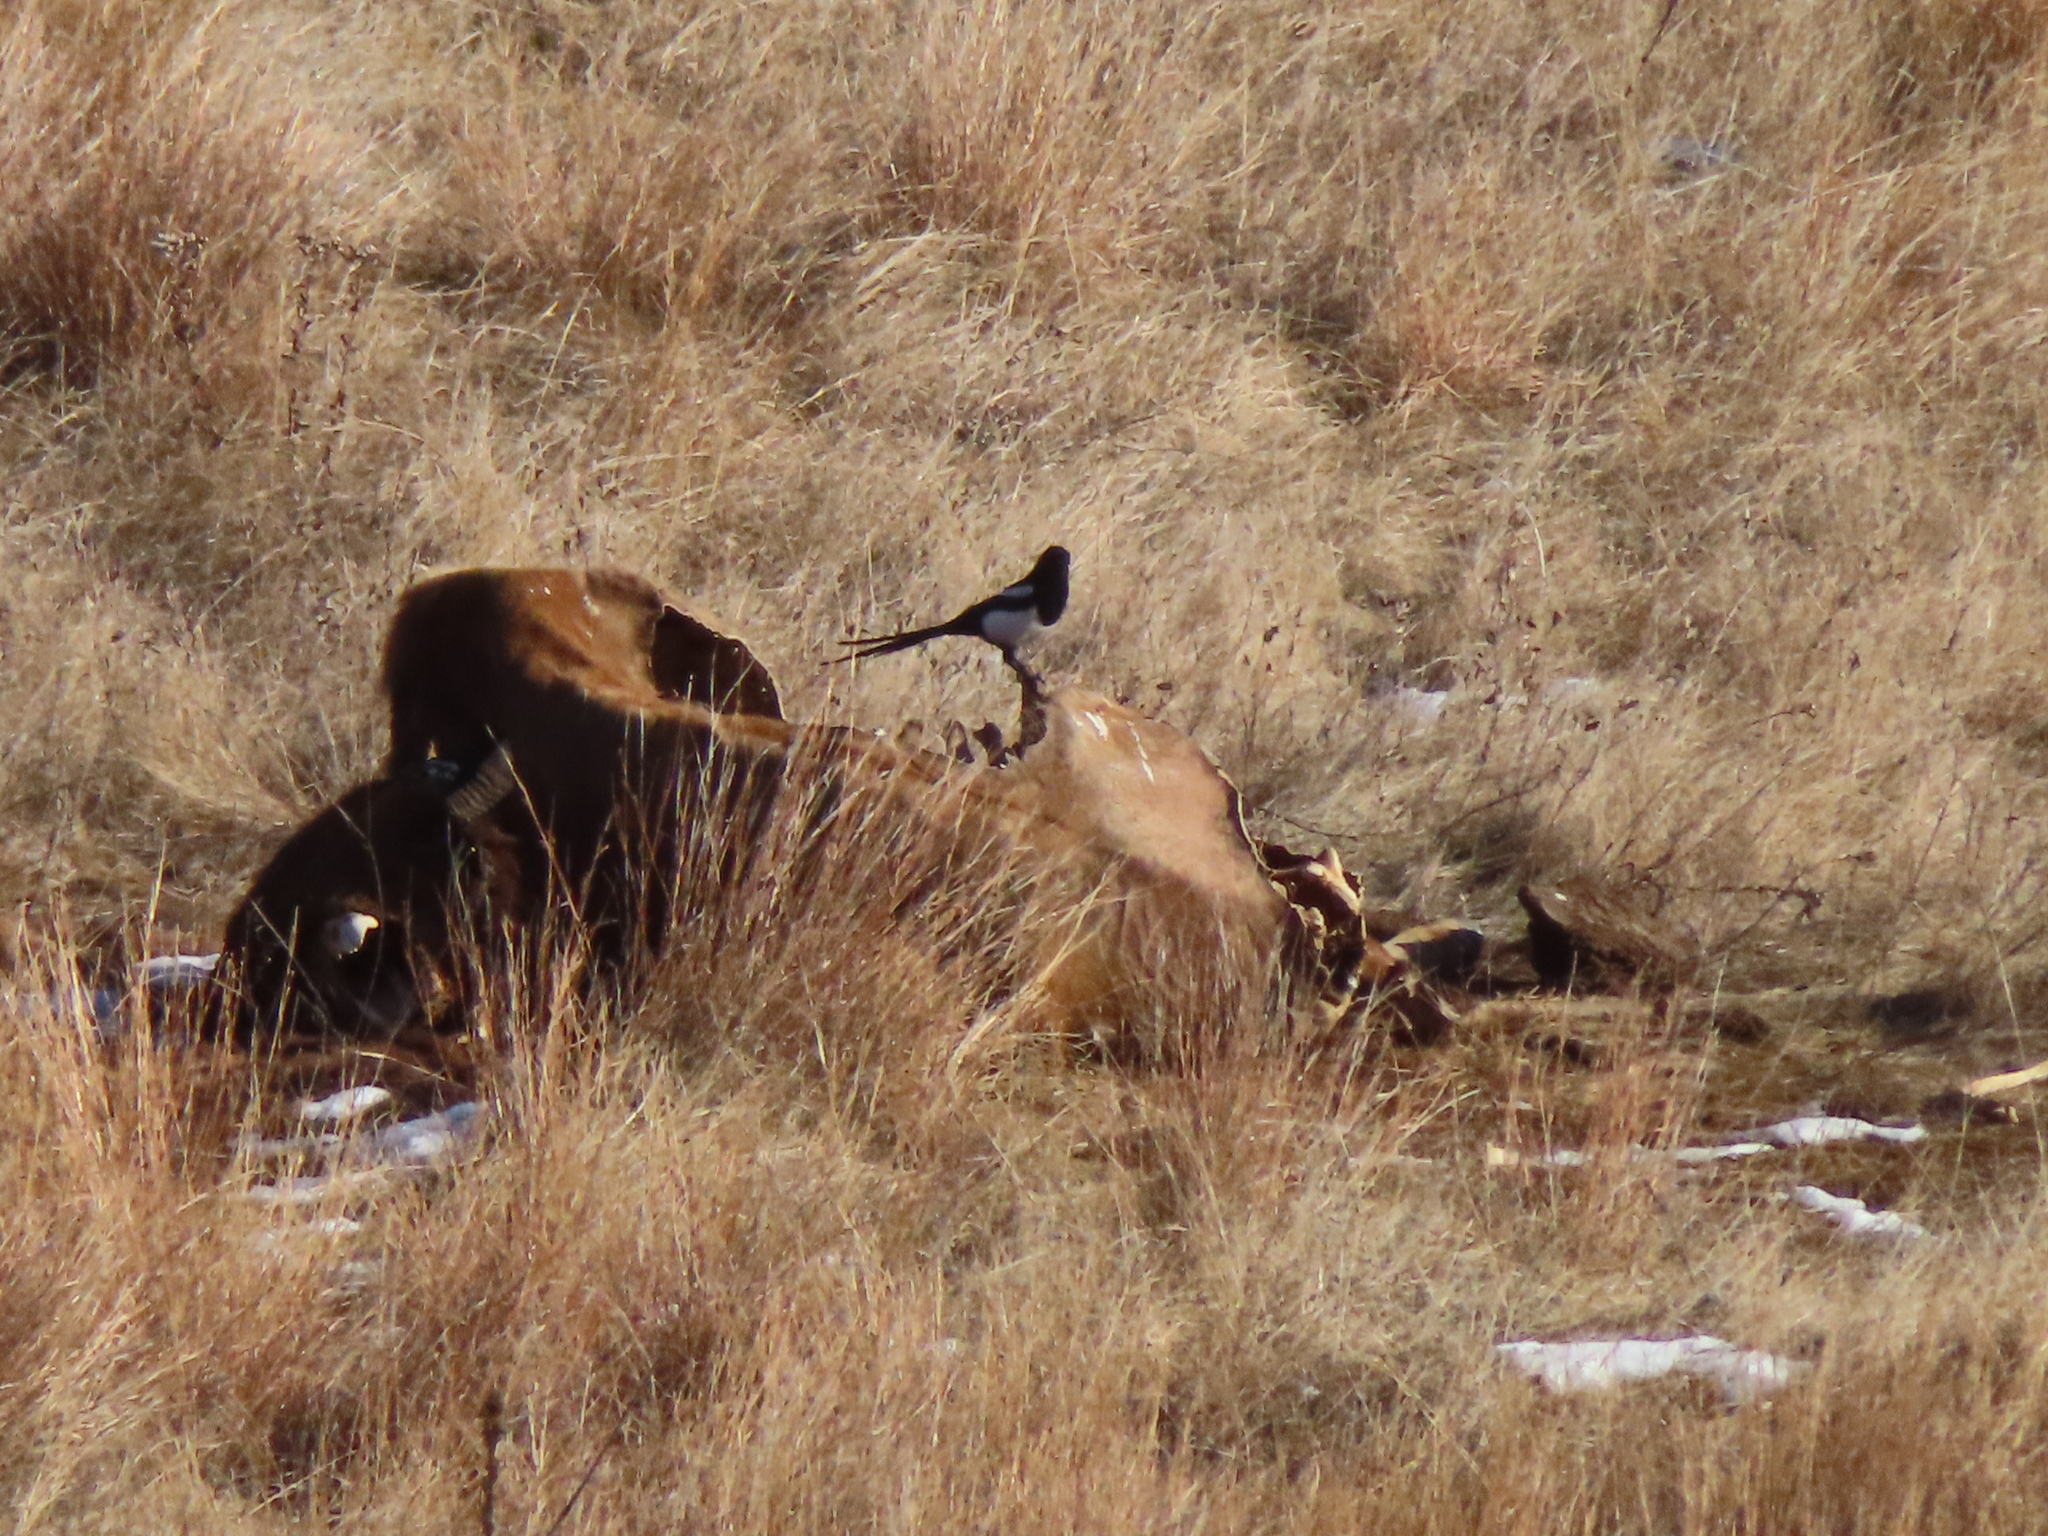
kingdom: Animalia
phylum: Chordata
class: Mammalia
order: Artiodactyla
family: Bovidae
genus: Bison
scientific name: Bison bison
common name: American bison
